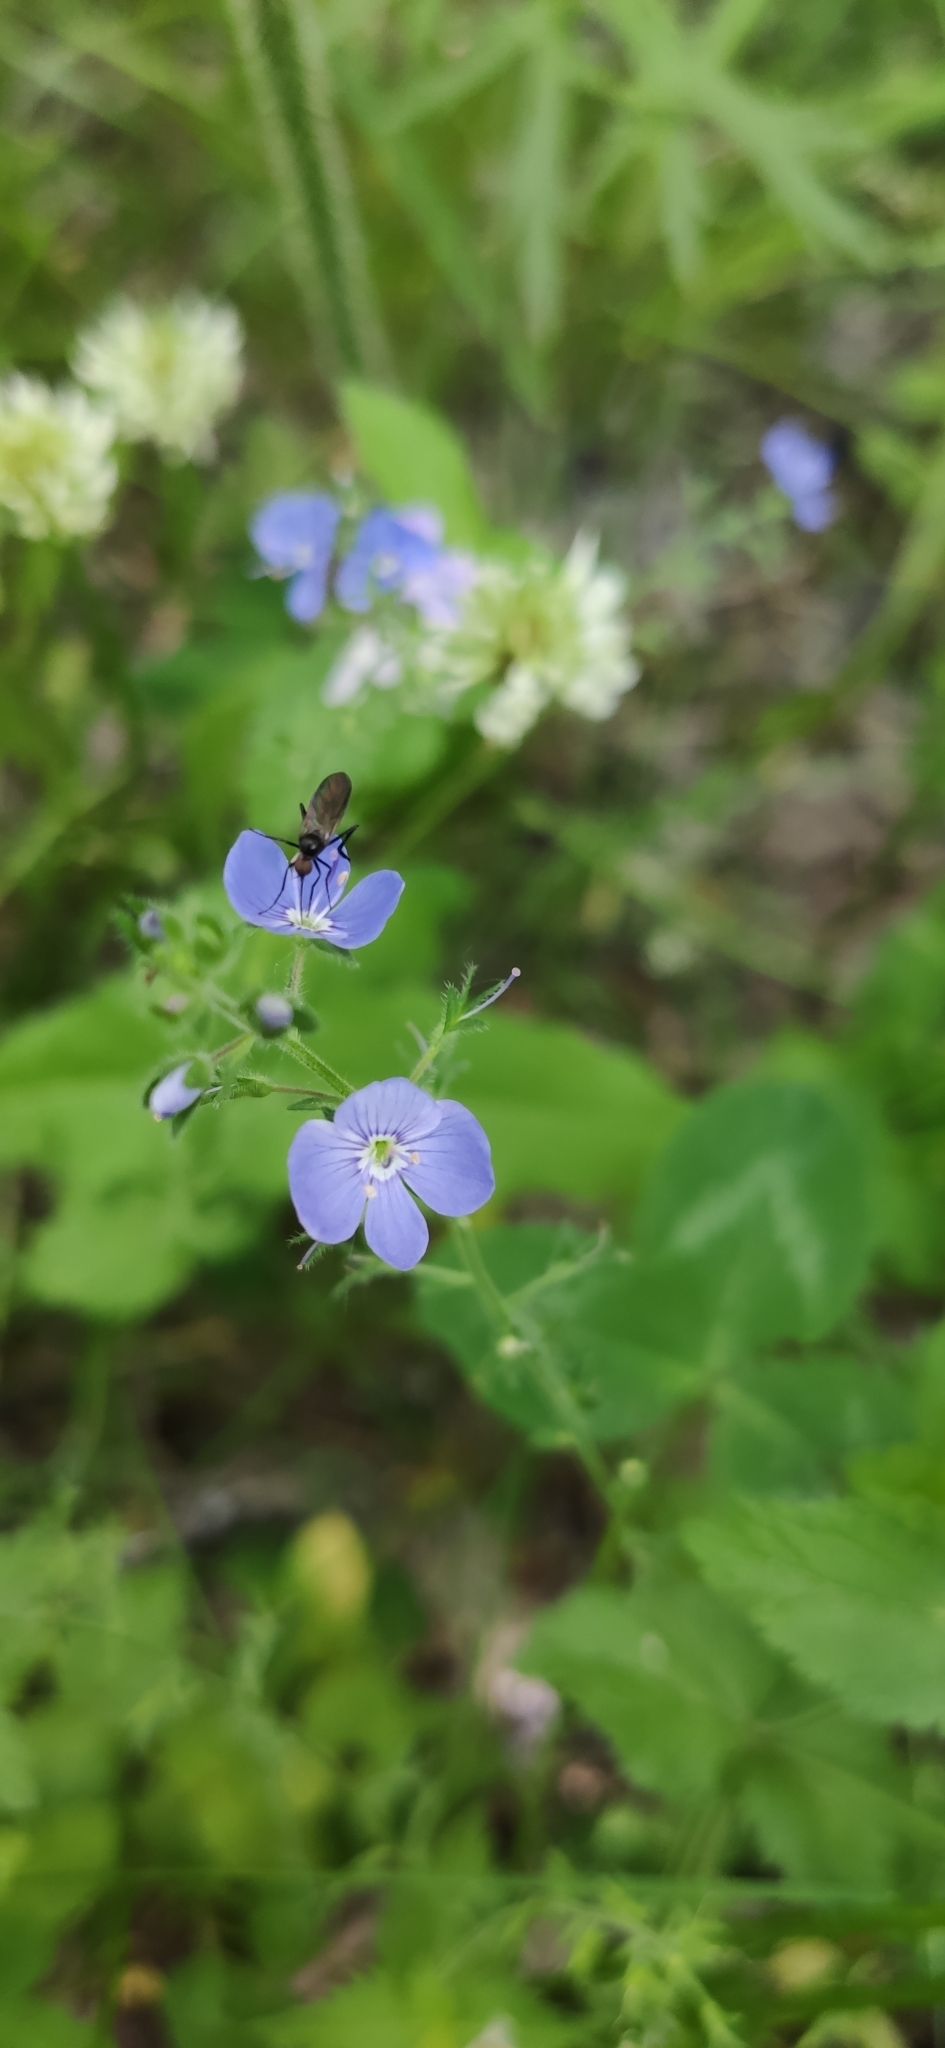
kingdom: Plantae
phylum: Tracheophyta
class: Magnoliopsida
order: Lamiales
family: Plantaginaceae
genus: Veronica
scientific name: Veronica chamaedrys
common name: Germander speedwell
